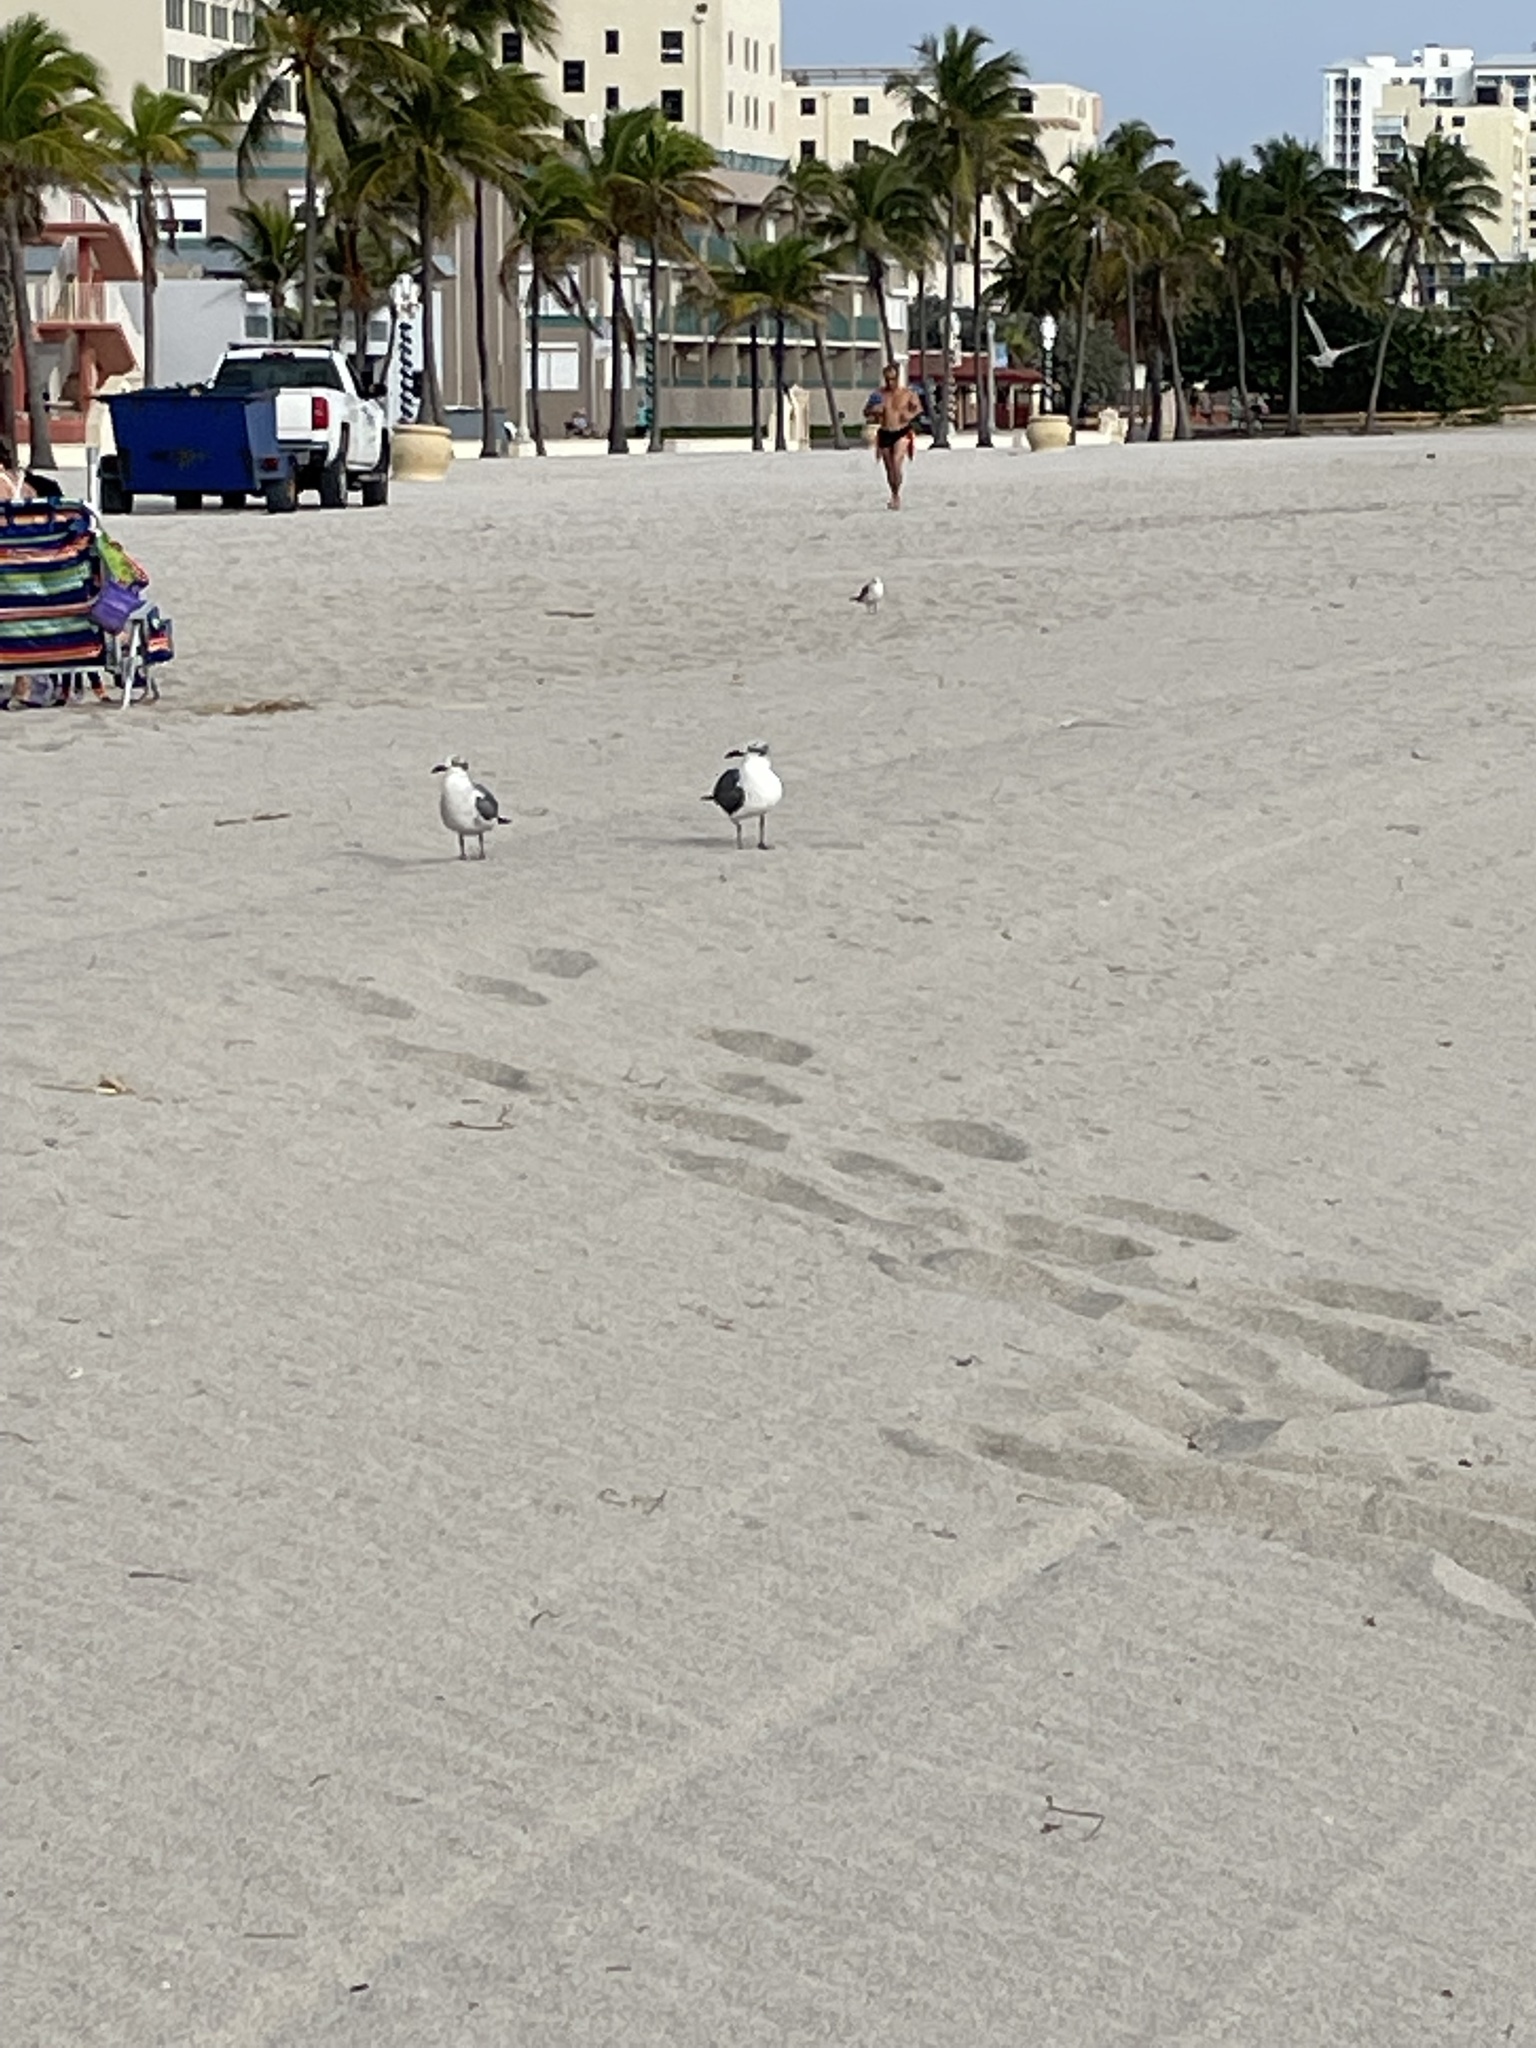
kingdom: Animalia
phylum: Chordata
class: Aves
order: Charadriiformes
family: Laridae
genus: Leucophaeus
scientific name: Leucophaeus atricilla
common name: Laughing gull
